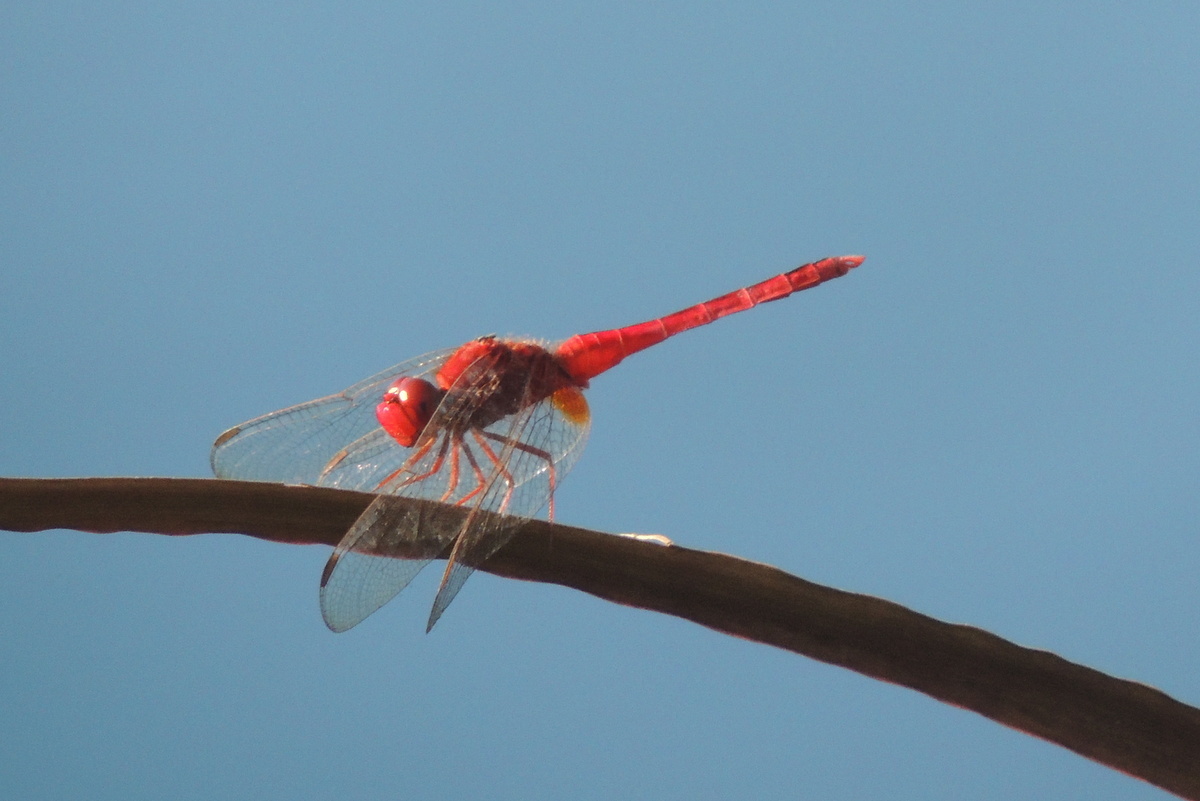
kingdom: Animalia
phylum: Arthropoda
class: Insecta
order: Odonata
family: Libellulidae
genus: Crocothemis
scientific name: Crocothemis servilia
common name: Scarlet skimmer
